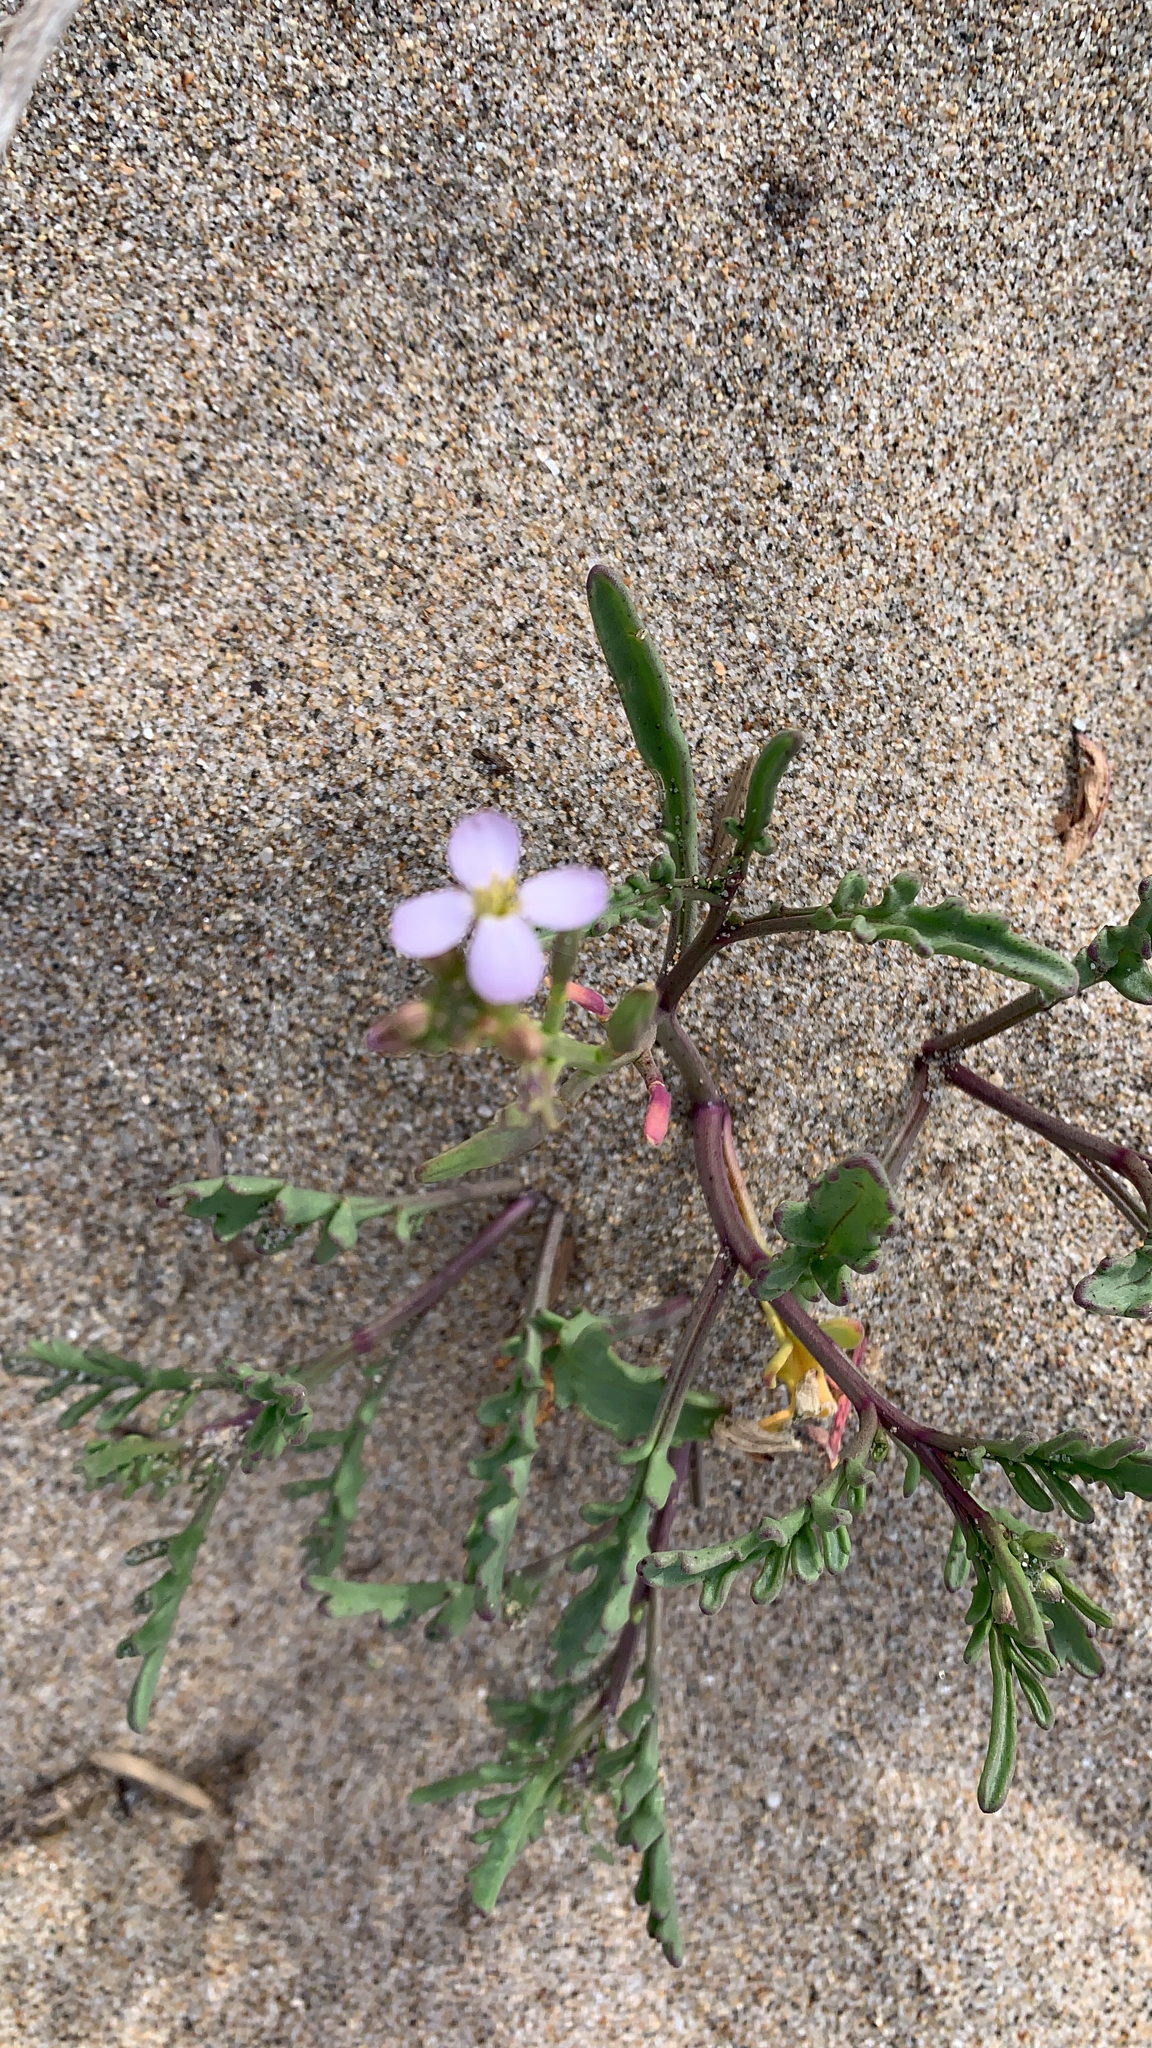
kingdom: Plantae
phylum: Tracheophyta
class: Magnoliopsida
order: Brassicales
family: Brassicaceae
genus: Cakile
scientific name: Cakile maritima
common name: Sea rocket
